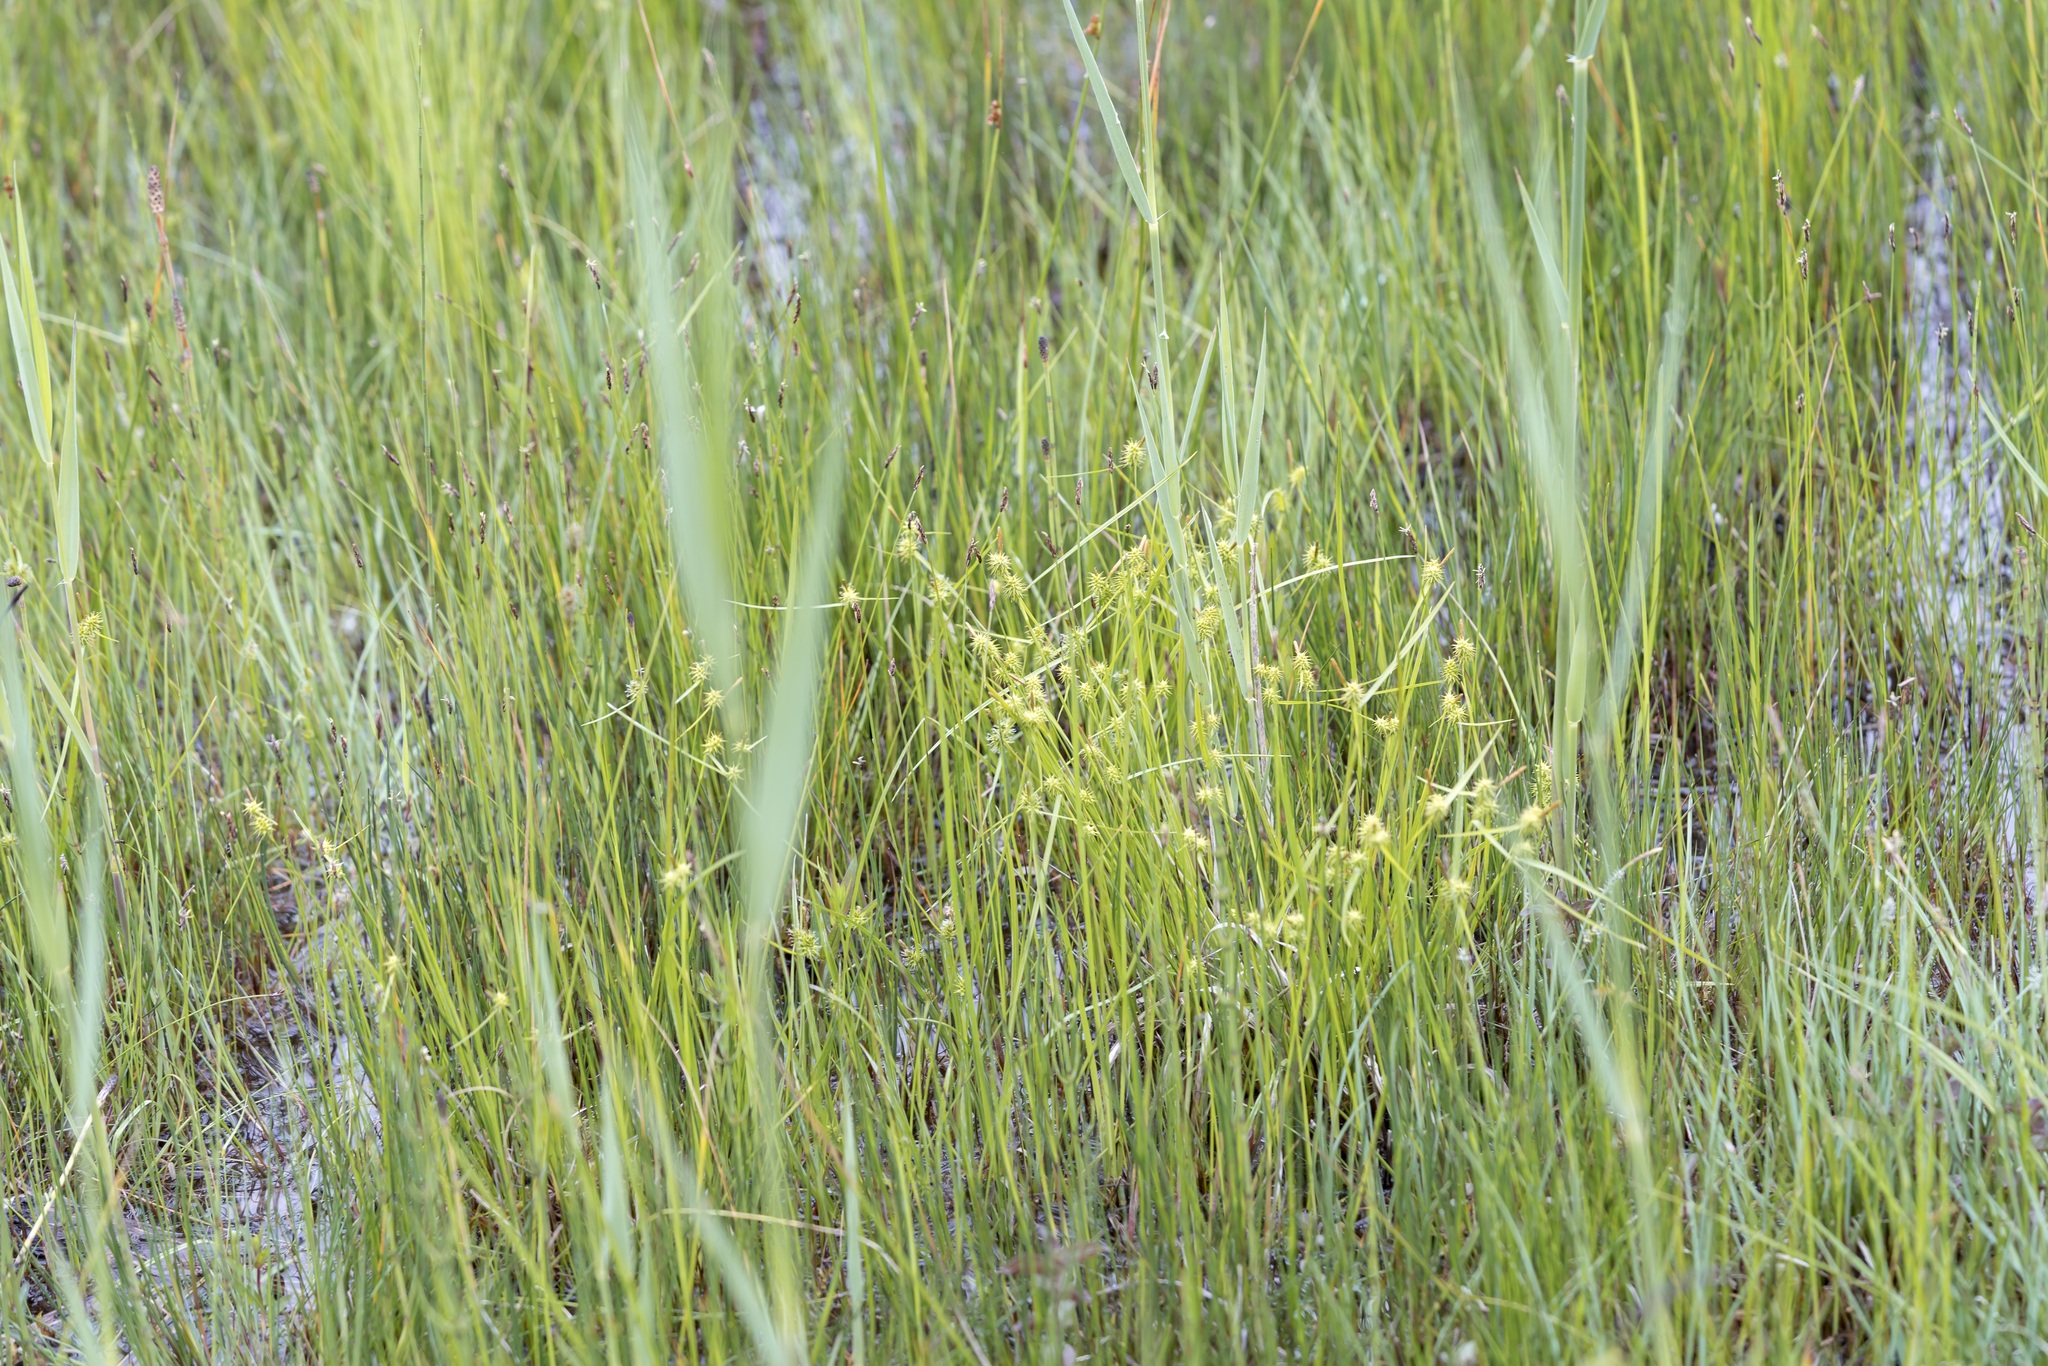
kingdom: Plantae
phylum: Tracheophyta
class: Liliopsida
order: Poales
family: Cyperaceae
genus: Carex
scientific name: Carex flava
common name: Large yellow-sedge
